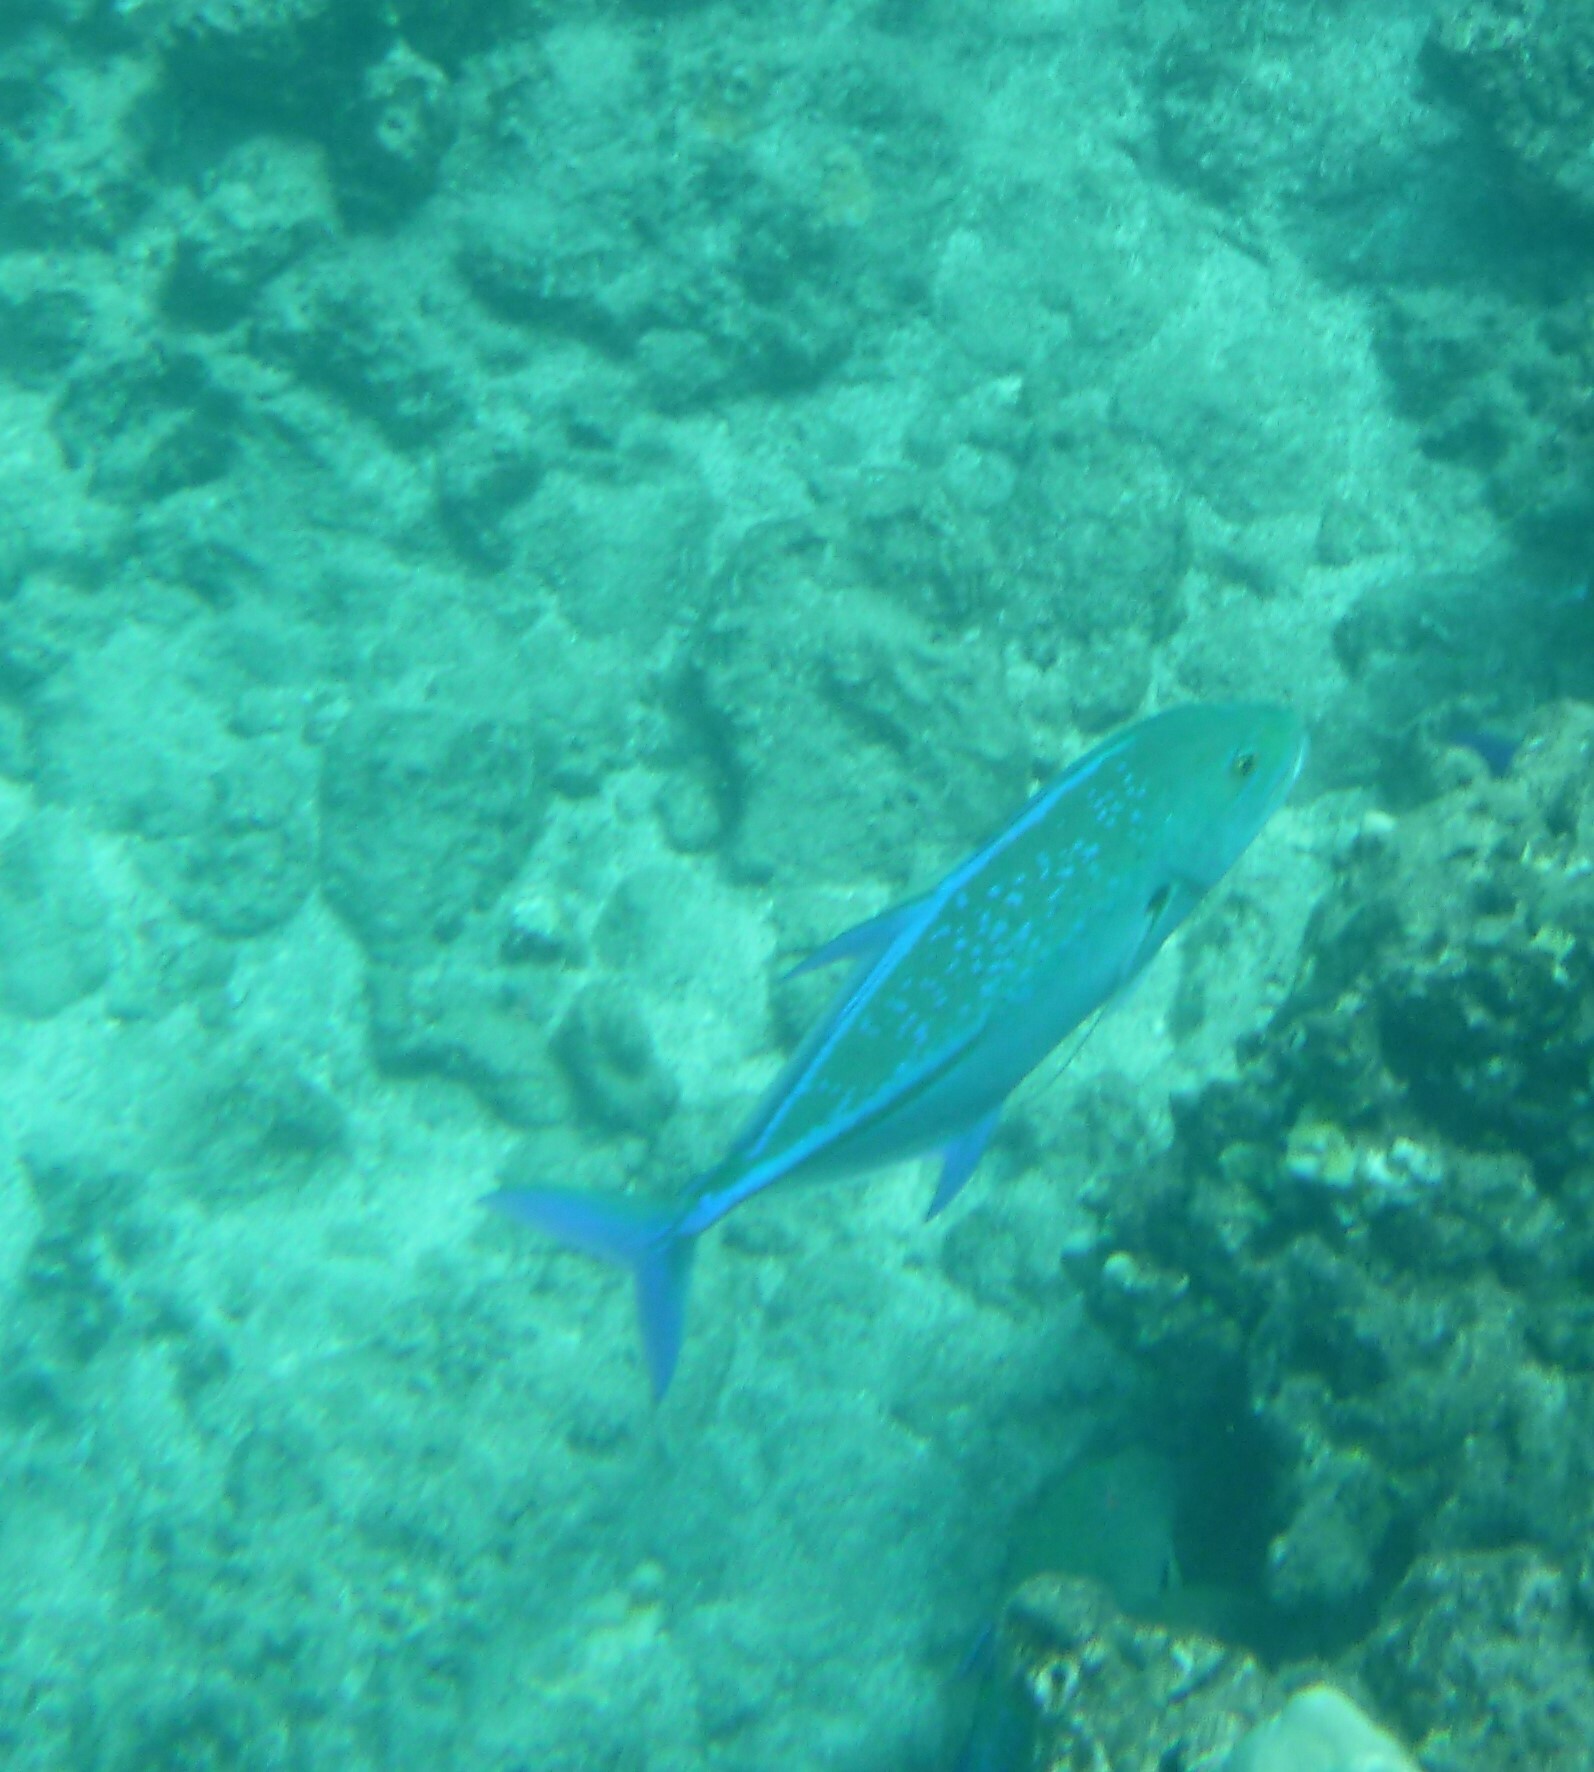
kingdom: Animalia
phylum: Chordata
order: Perciformes
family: Carangidae
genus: Caranx
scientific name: Caranx melampygus
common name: Bluefin trevally
